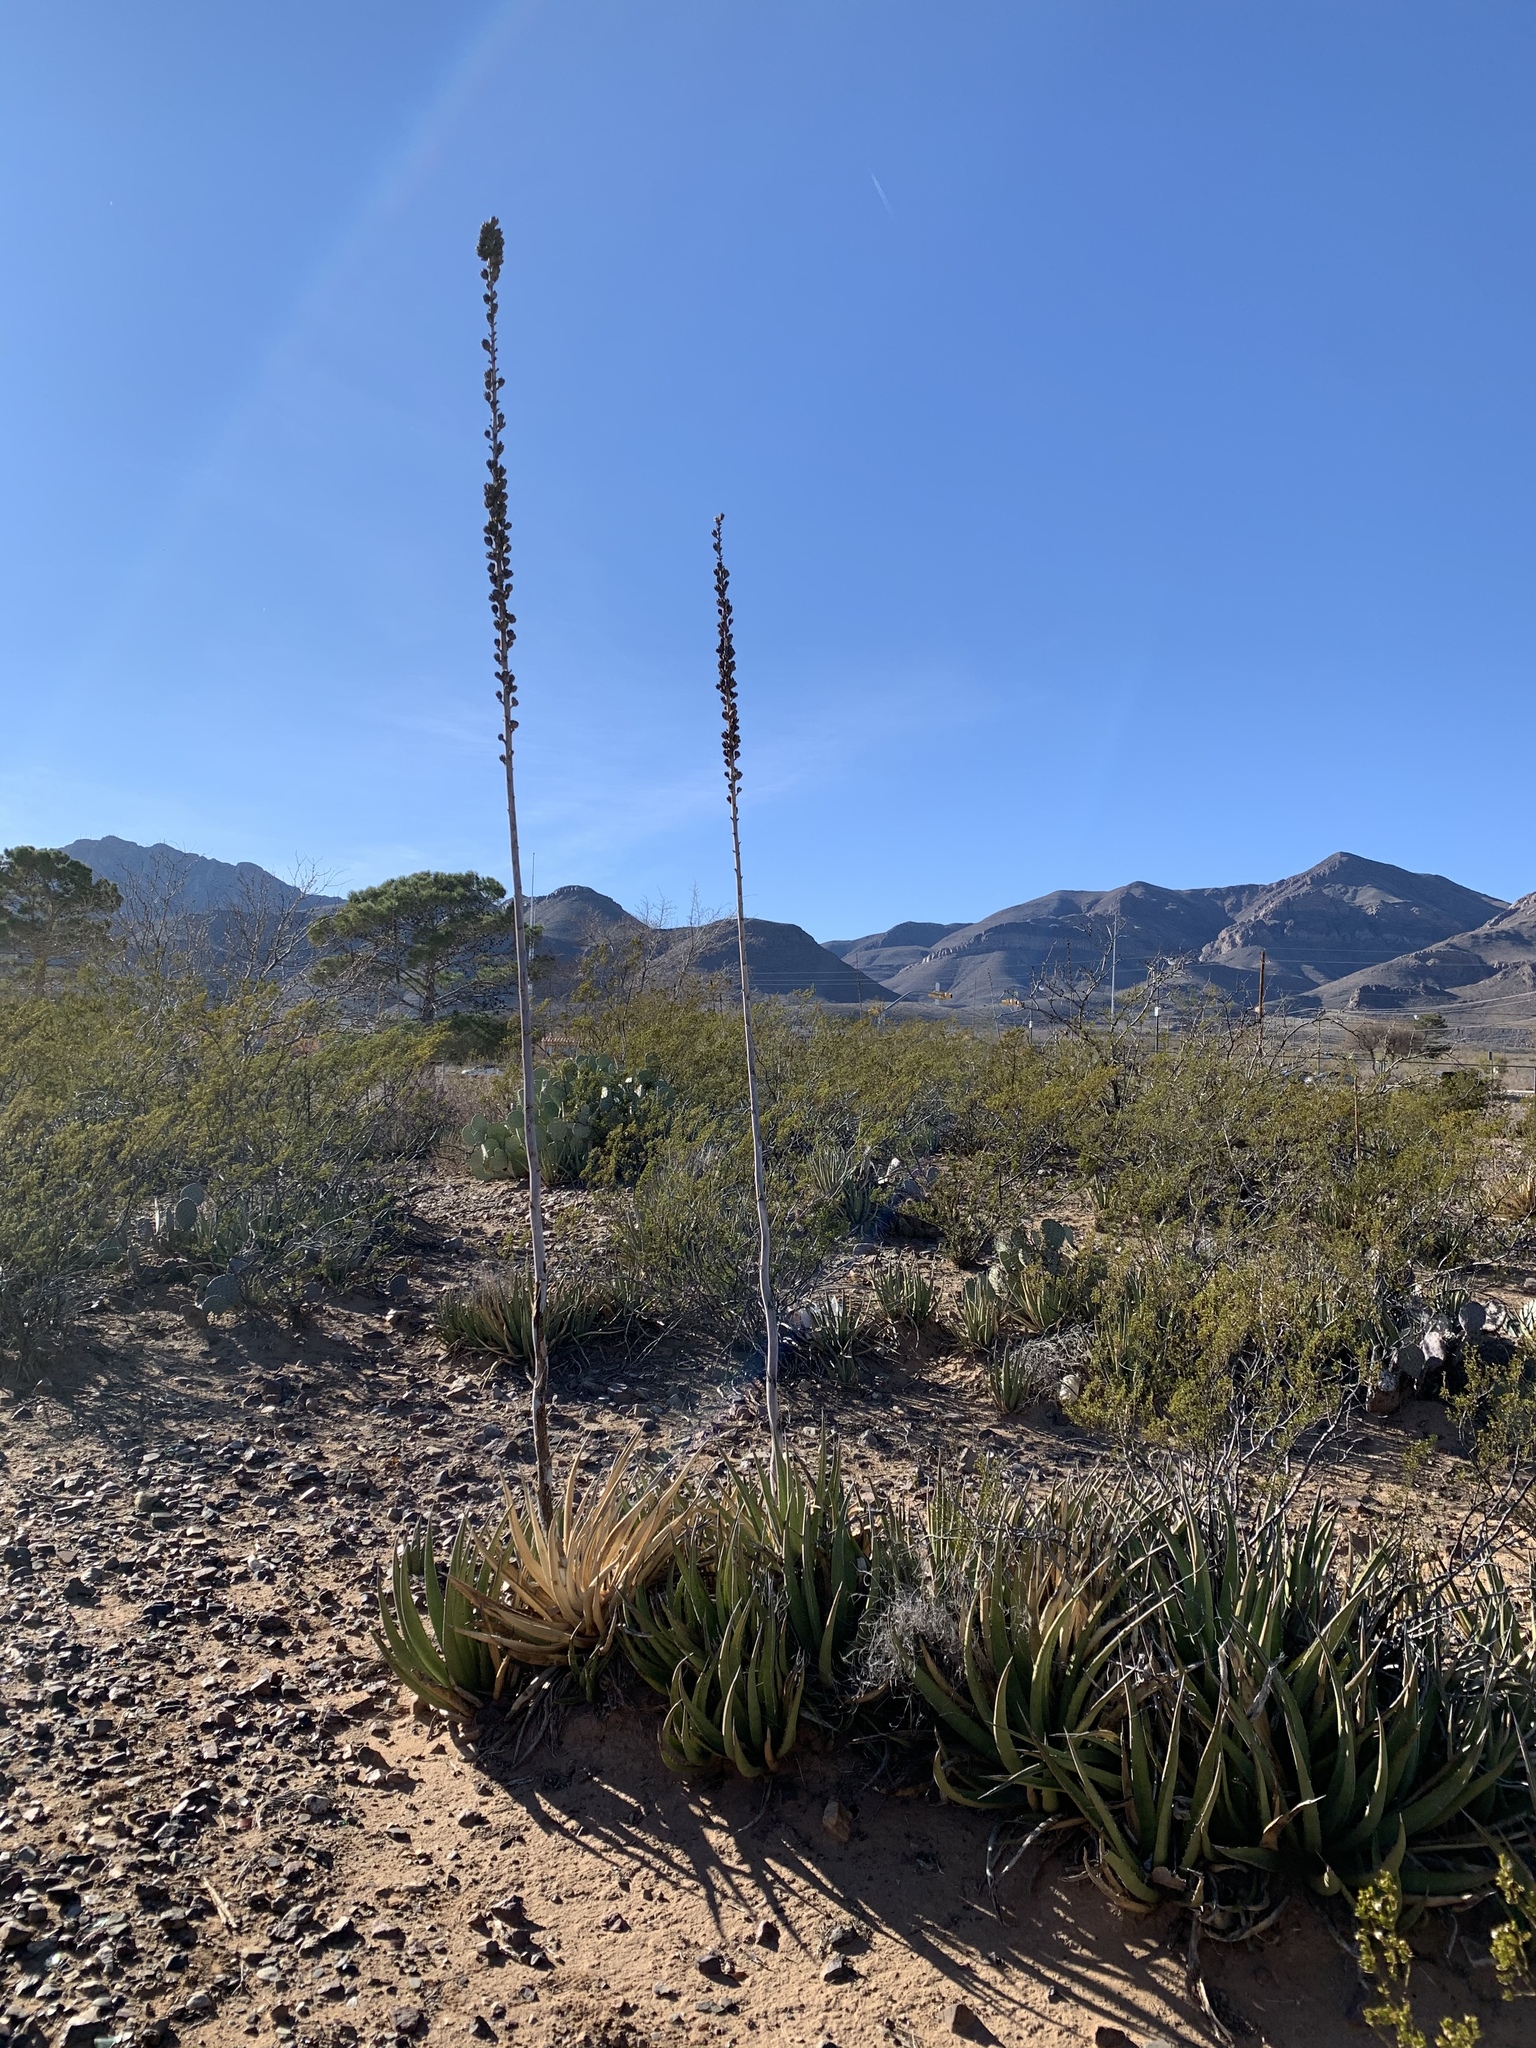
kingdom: Plantae
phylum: Tracheophyta
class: Liliopsida
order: Asparagales
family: Asparagaceae
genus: Agave
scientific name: Agave lechuguilla
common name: Lecheguilla agave
